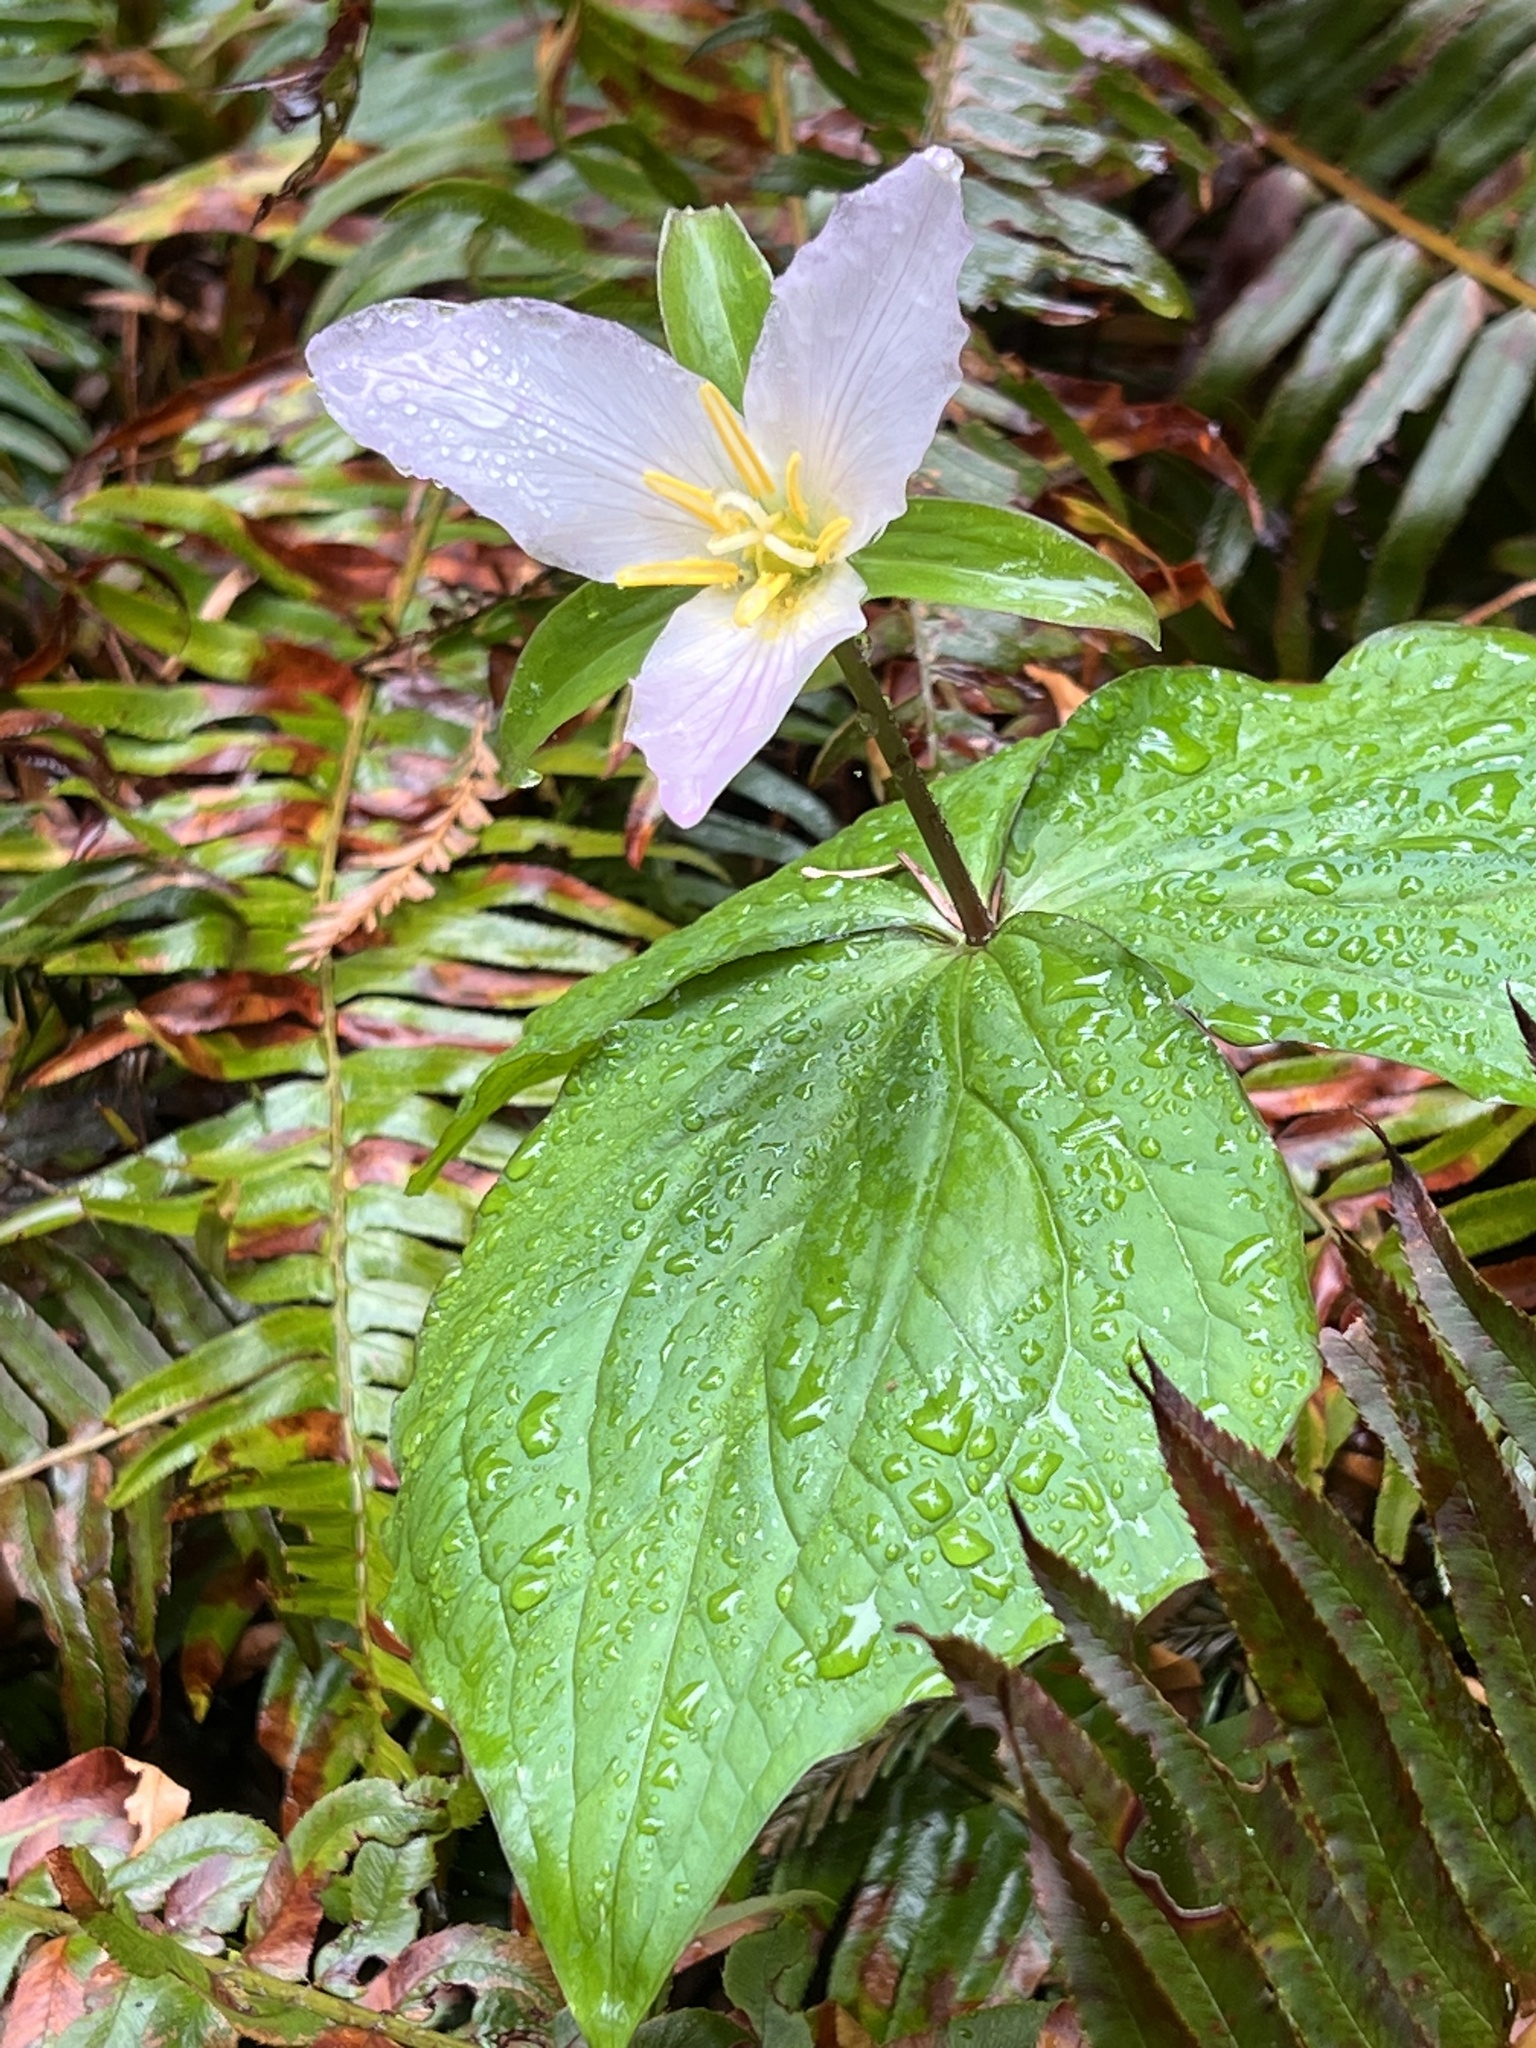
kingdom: Plantae
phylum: Tracheophyta
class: Liliopsida
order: Liliales
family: Melanthiaceae
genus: Trillium
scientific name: Trillium ovatum
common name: Pacific trillium
